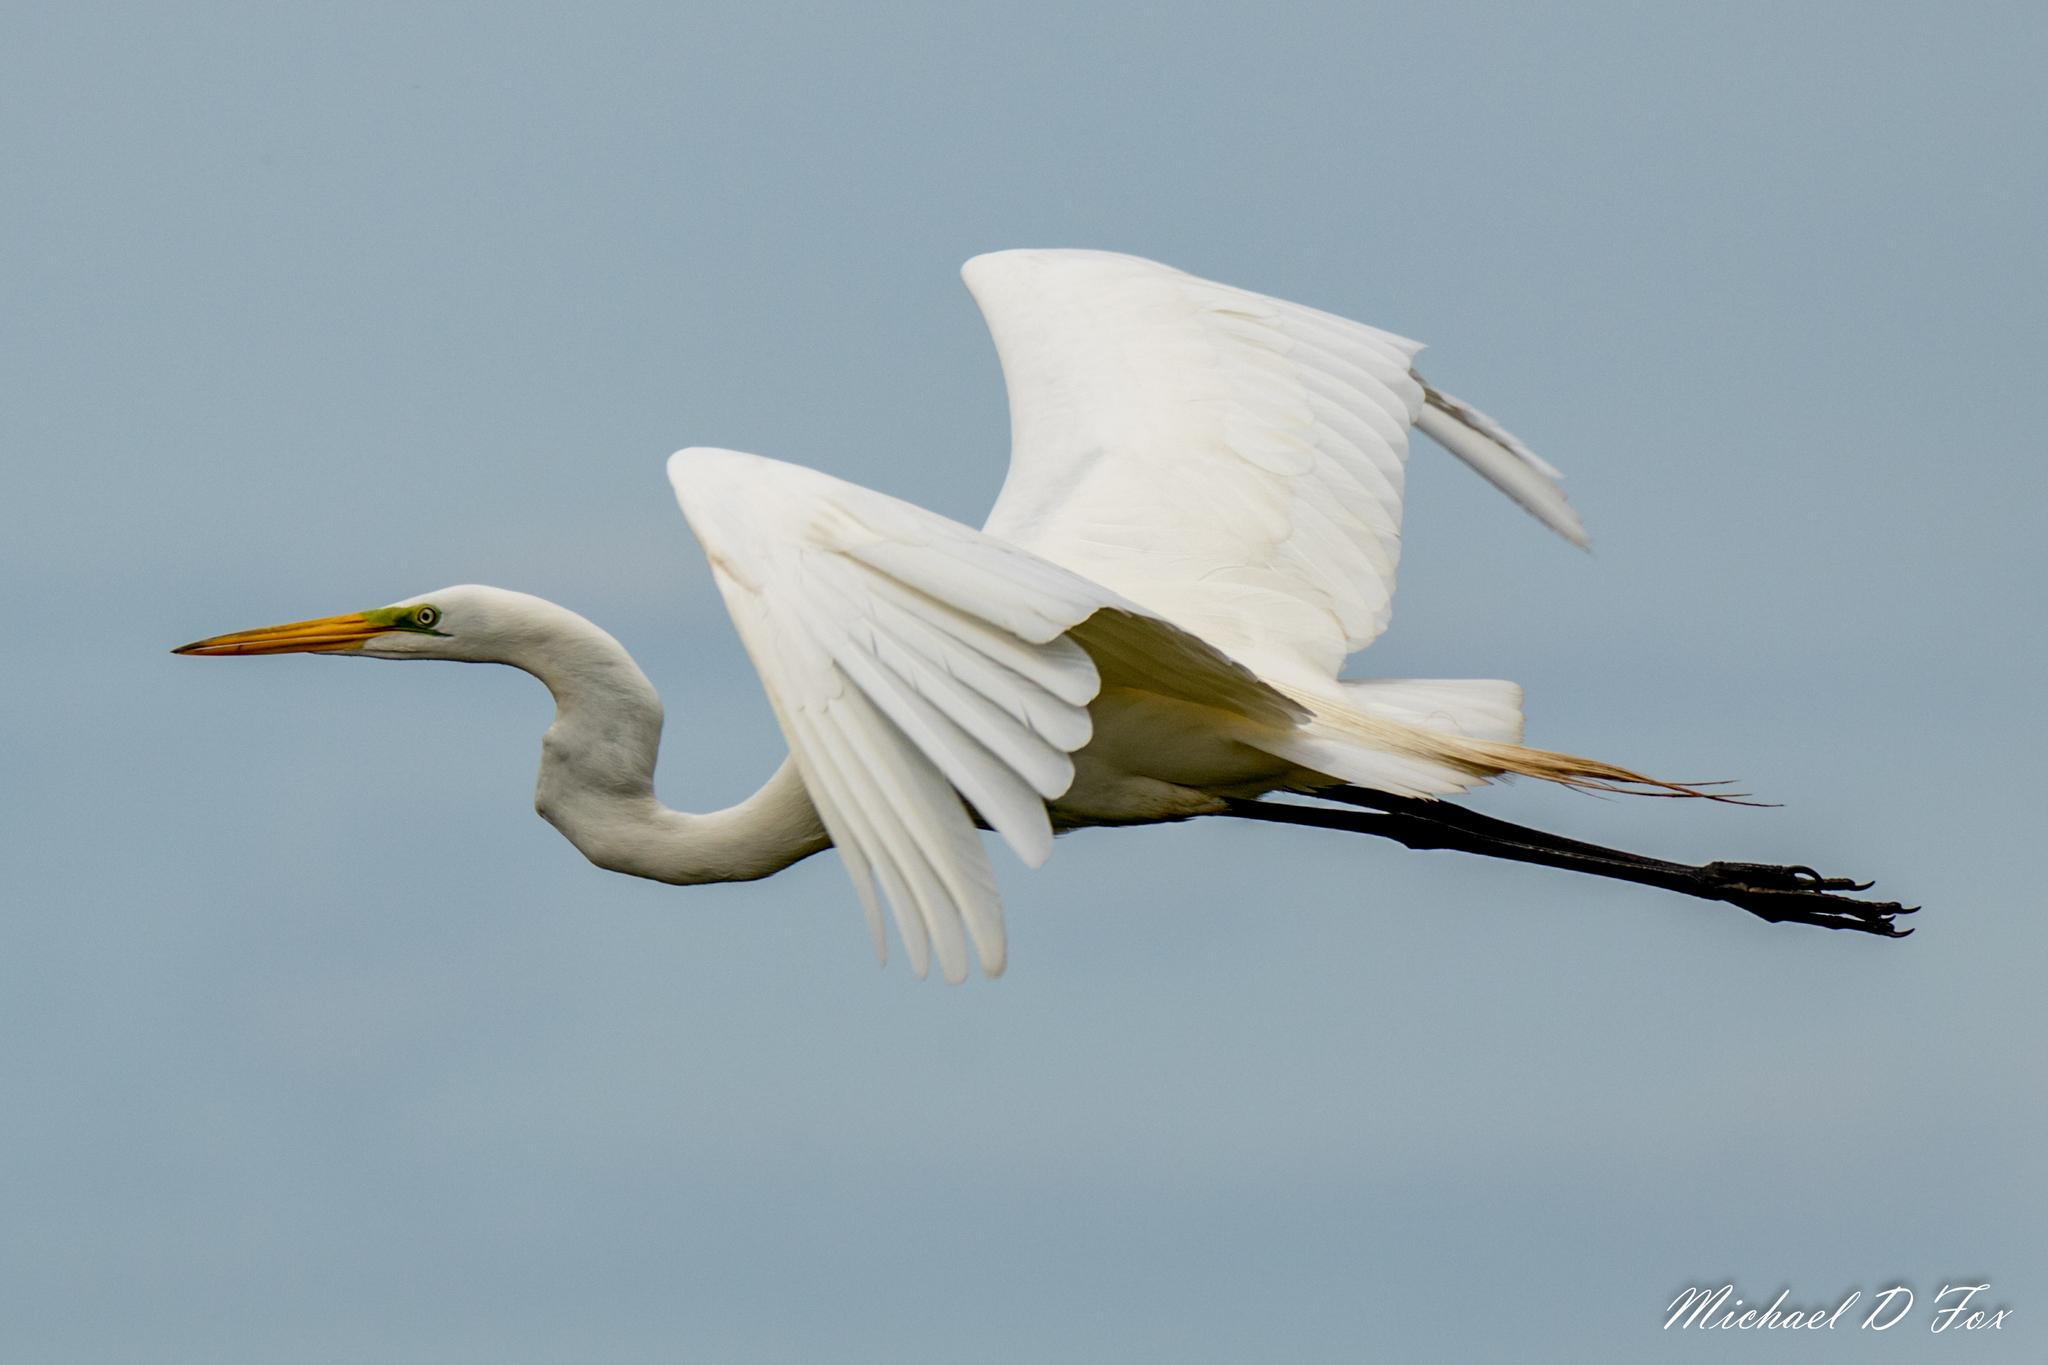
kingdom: Animalia
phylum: Chordata
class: Aves
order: Pelecaniformes
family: Ardeidae
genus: Ardea
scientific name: Ardea alba
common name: Great egret
